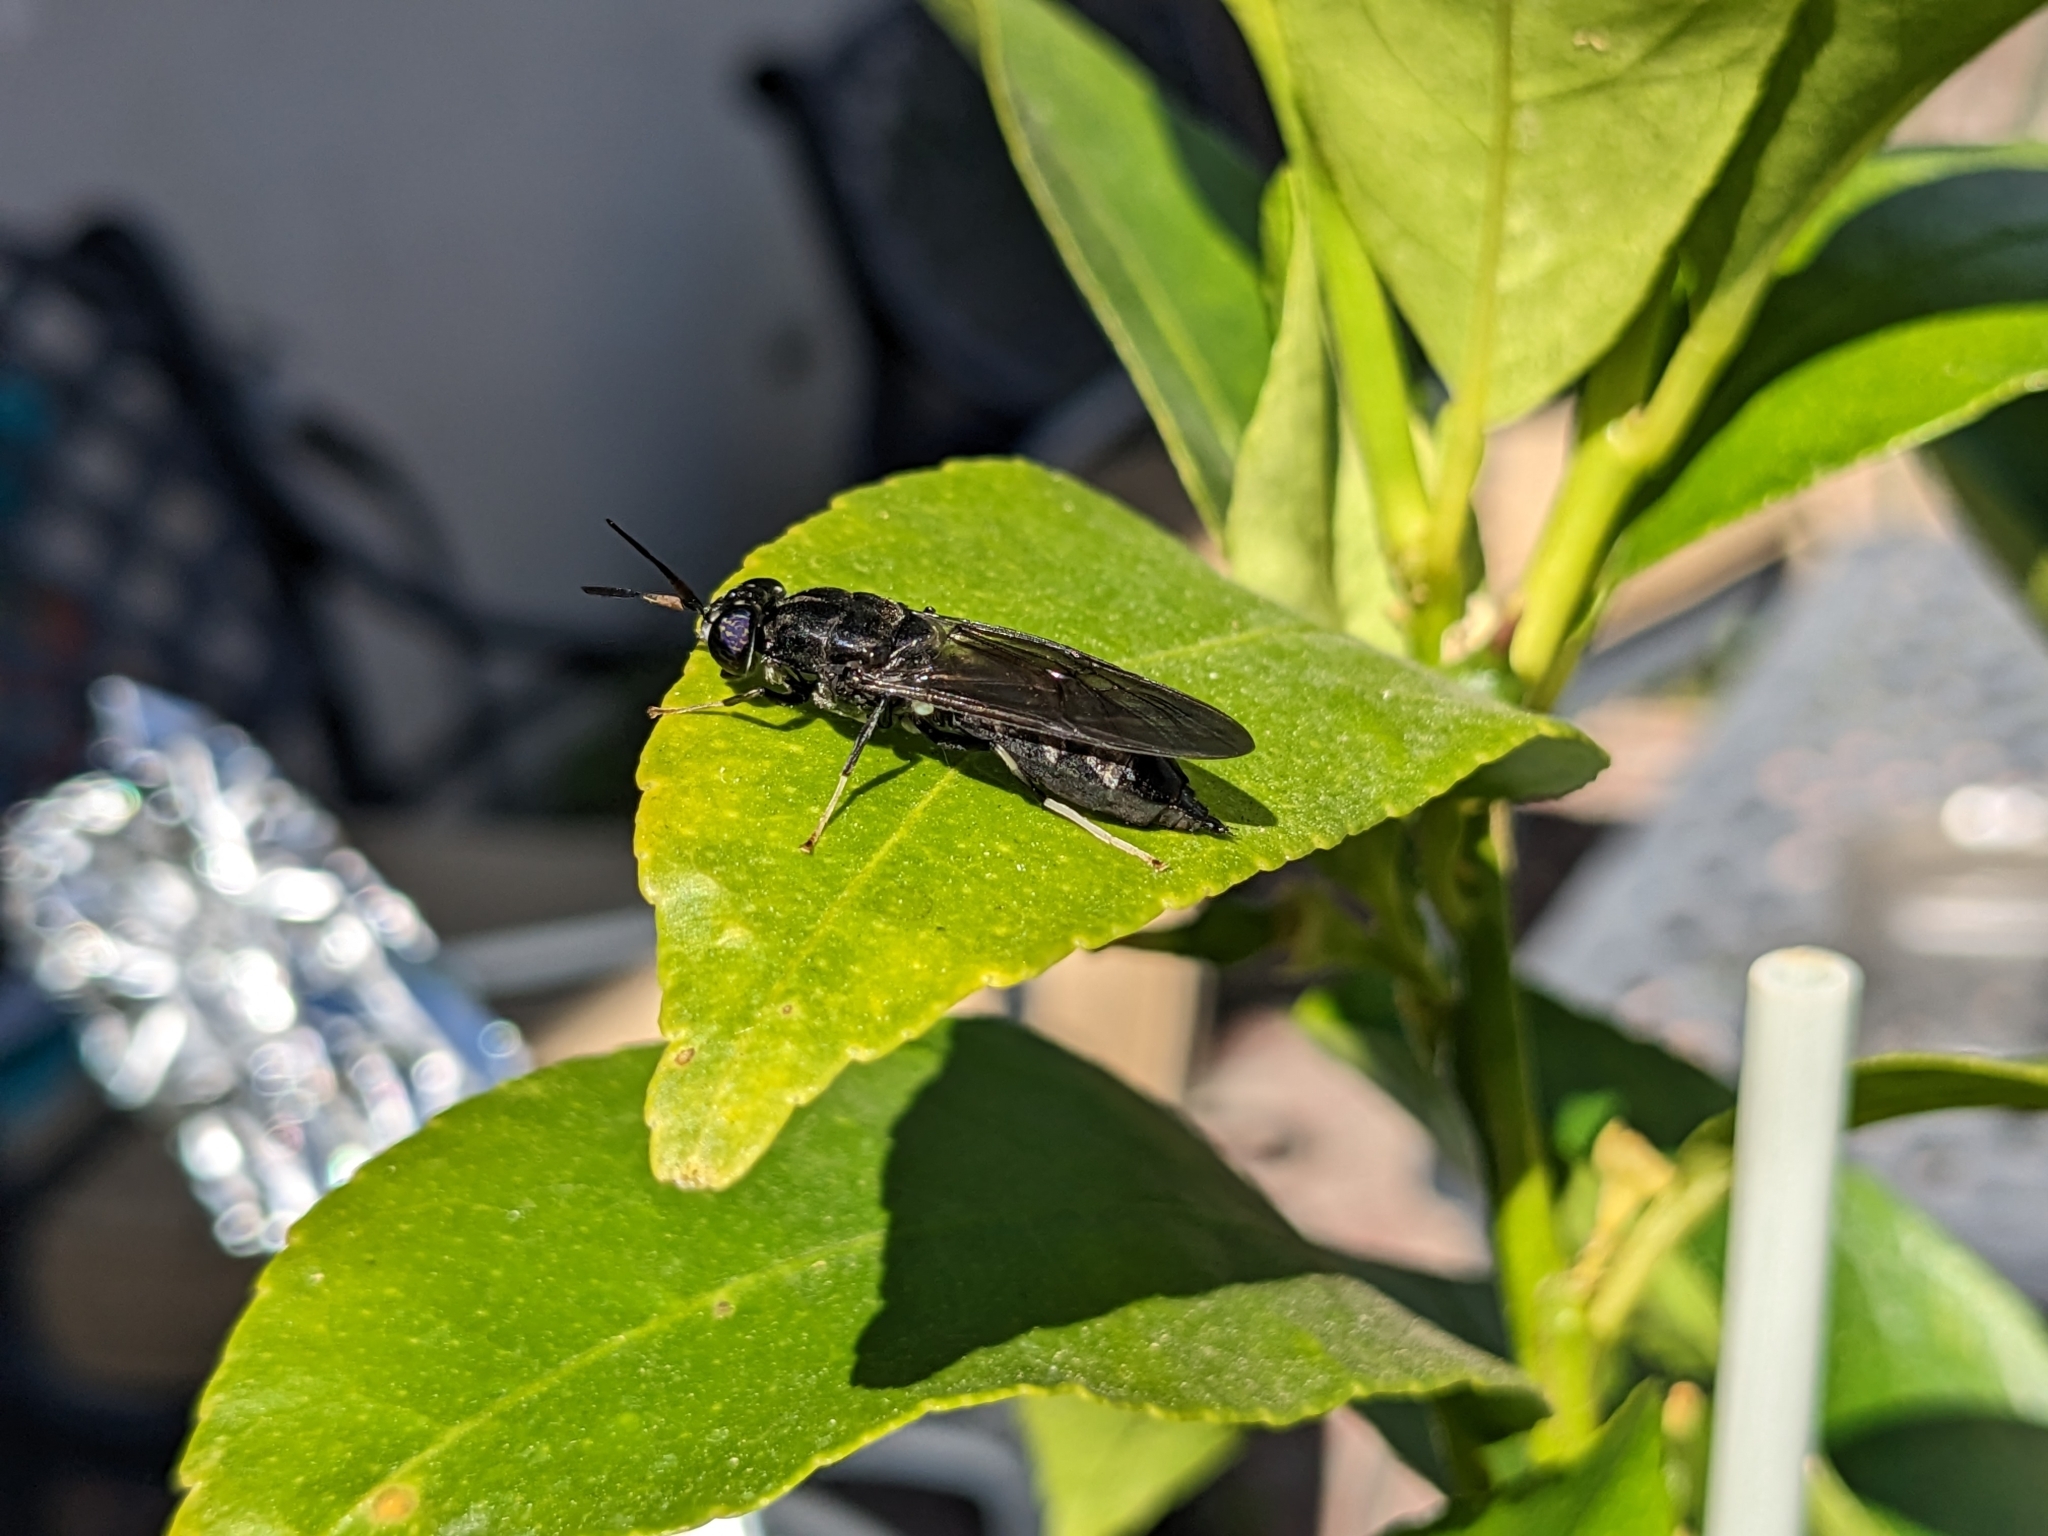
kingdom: Animalia
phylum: Arthropoda
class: Insecta
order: Diptera
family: Stratiomyidae
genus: Hermetia
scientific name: Hermetia illucens
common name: Black soldier fly
